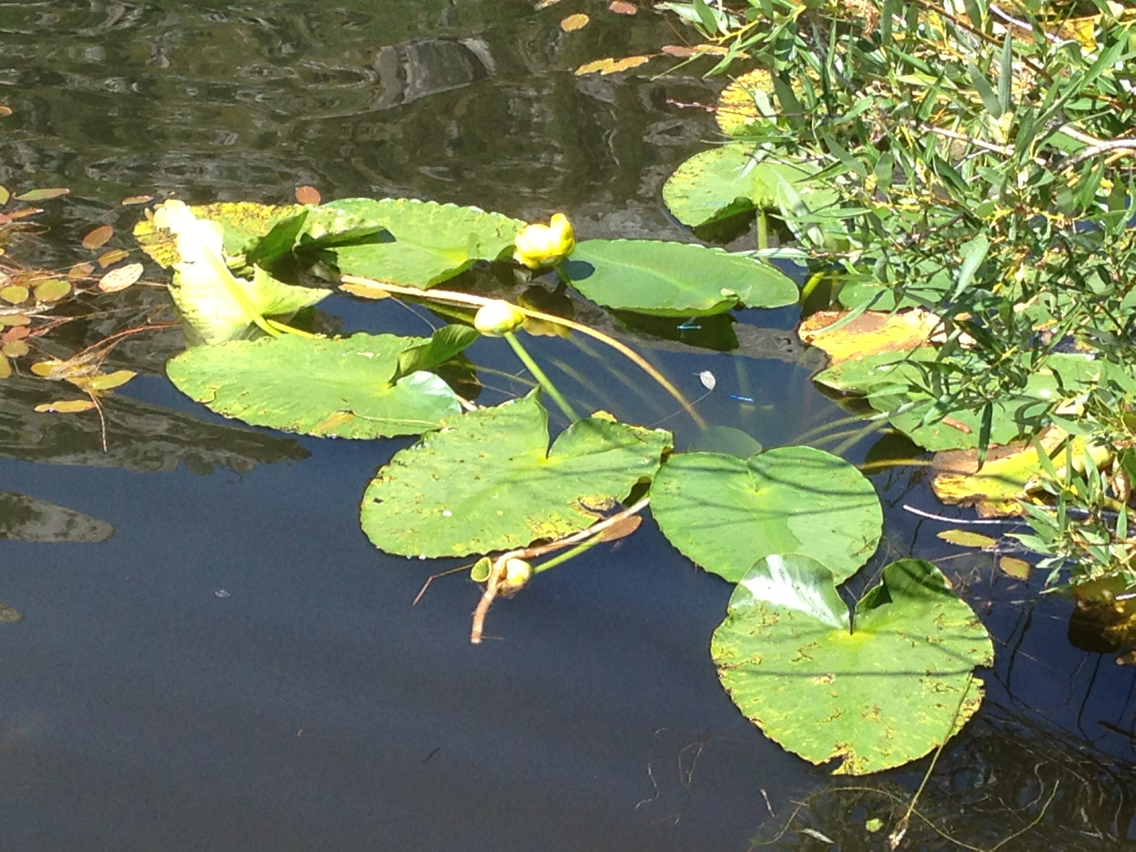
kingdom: Plantae
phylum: Tracheophyta
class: Magnoliopsida
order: Nymphaeales
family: Nymphaeaceae
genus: Nuphar
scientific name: Nuphar polysepala
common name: Rocky mountain cow-lily
